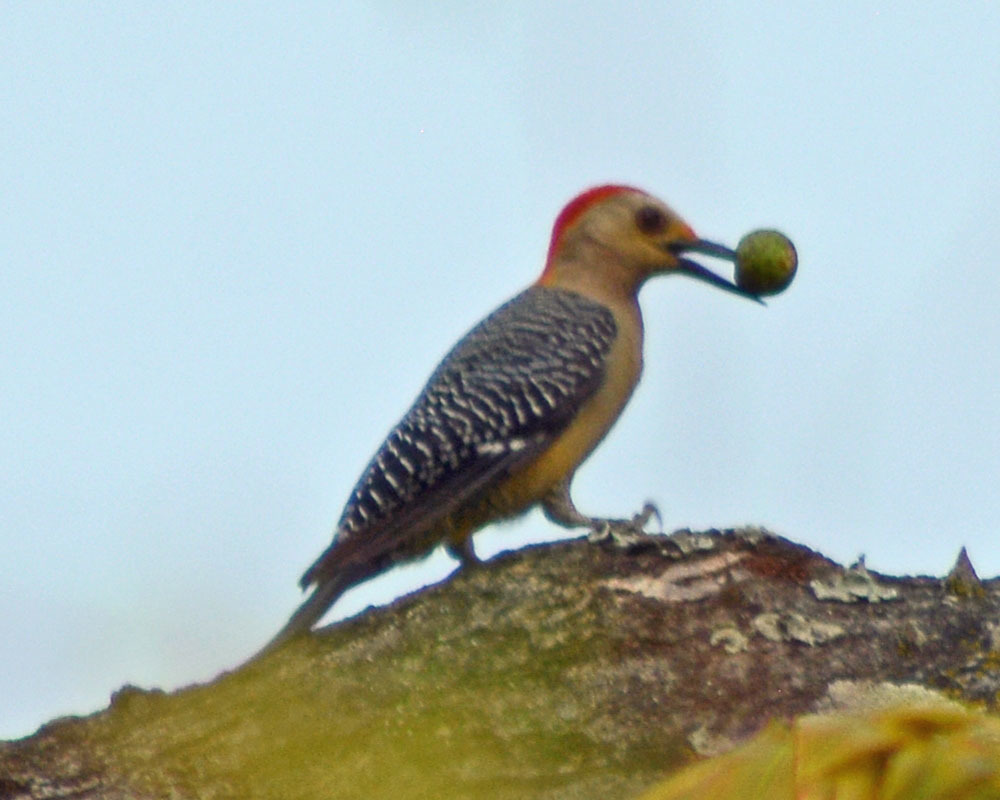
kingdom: Animalia
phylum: Chordata
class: Aves
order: Piciformes
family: Picidae
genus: Melanerpes
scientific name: Melanerpes aurifrons
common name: Golden-fronted woodpecker
